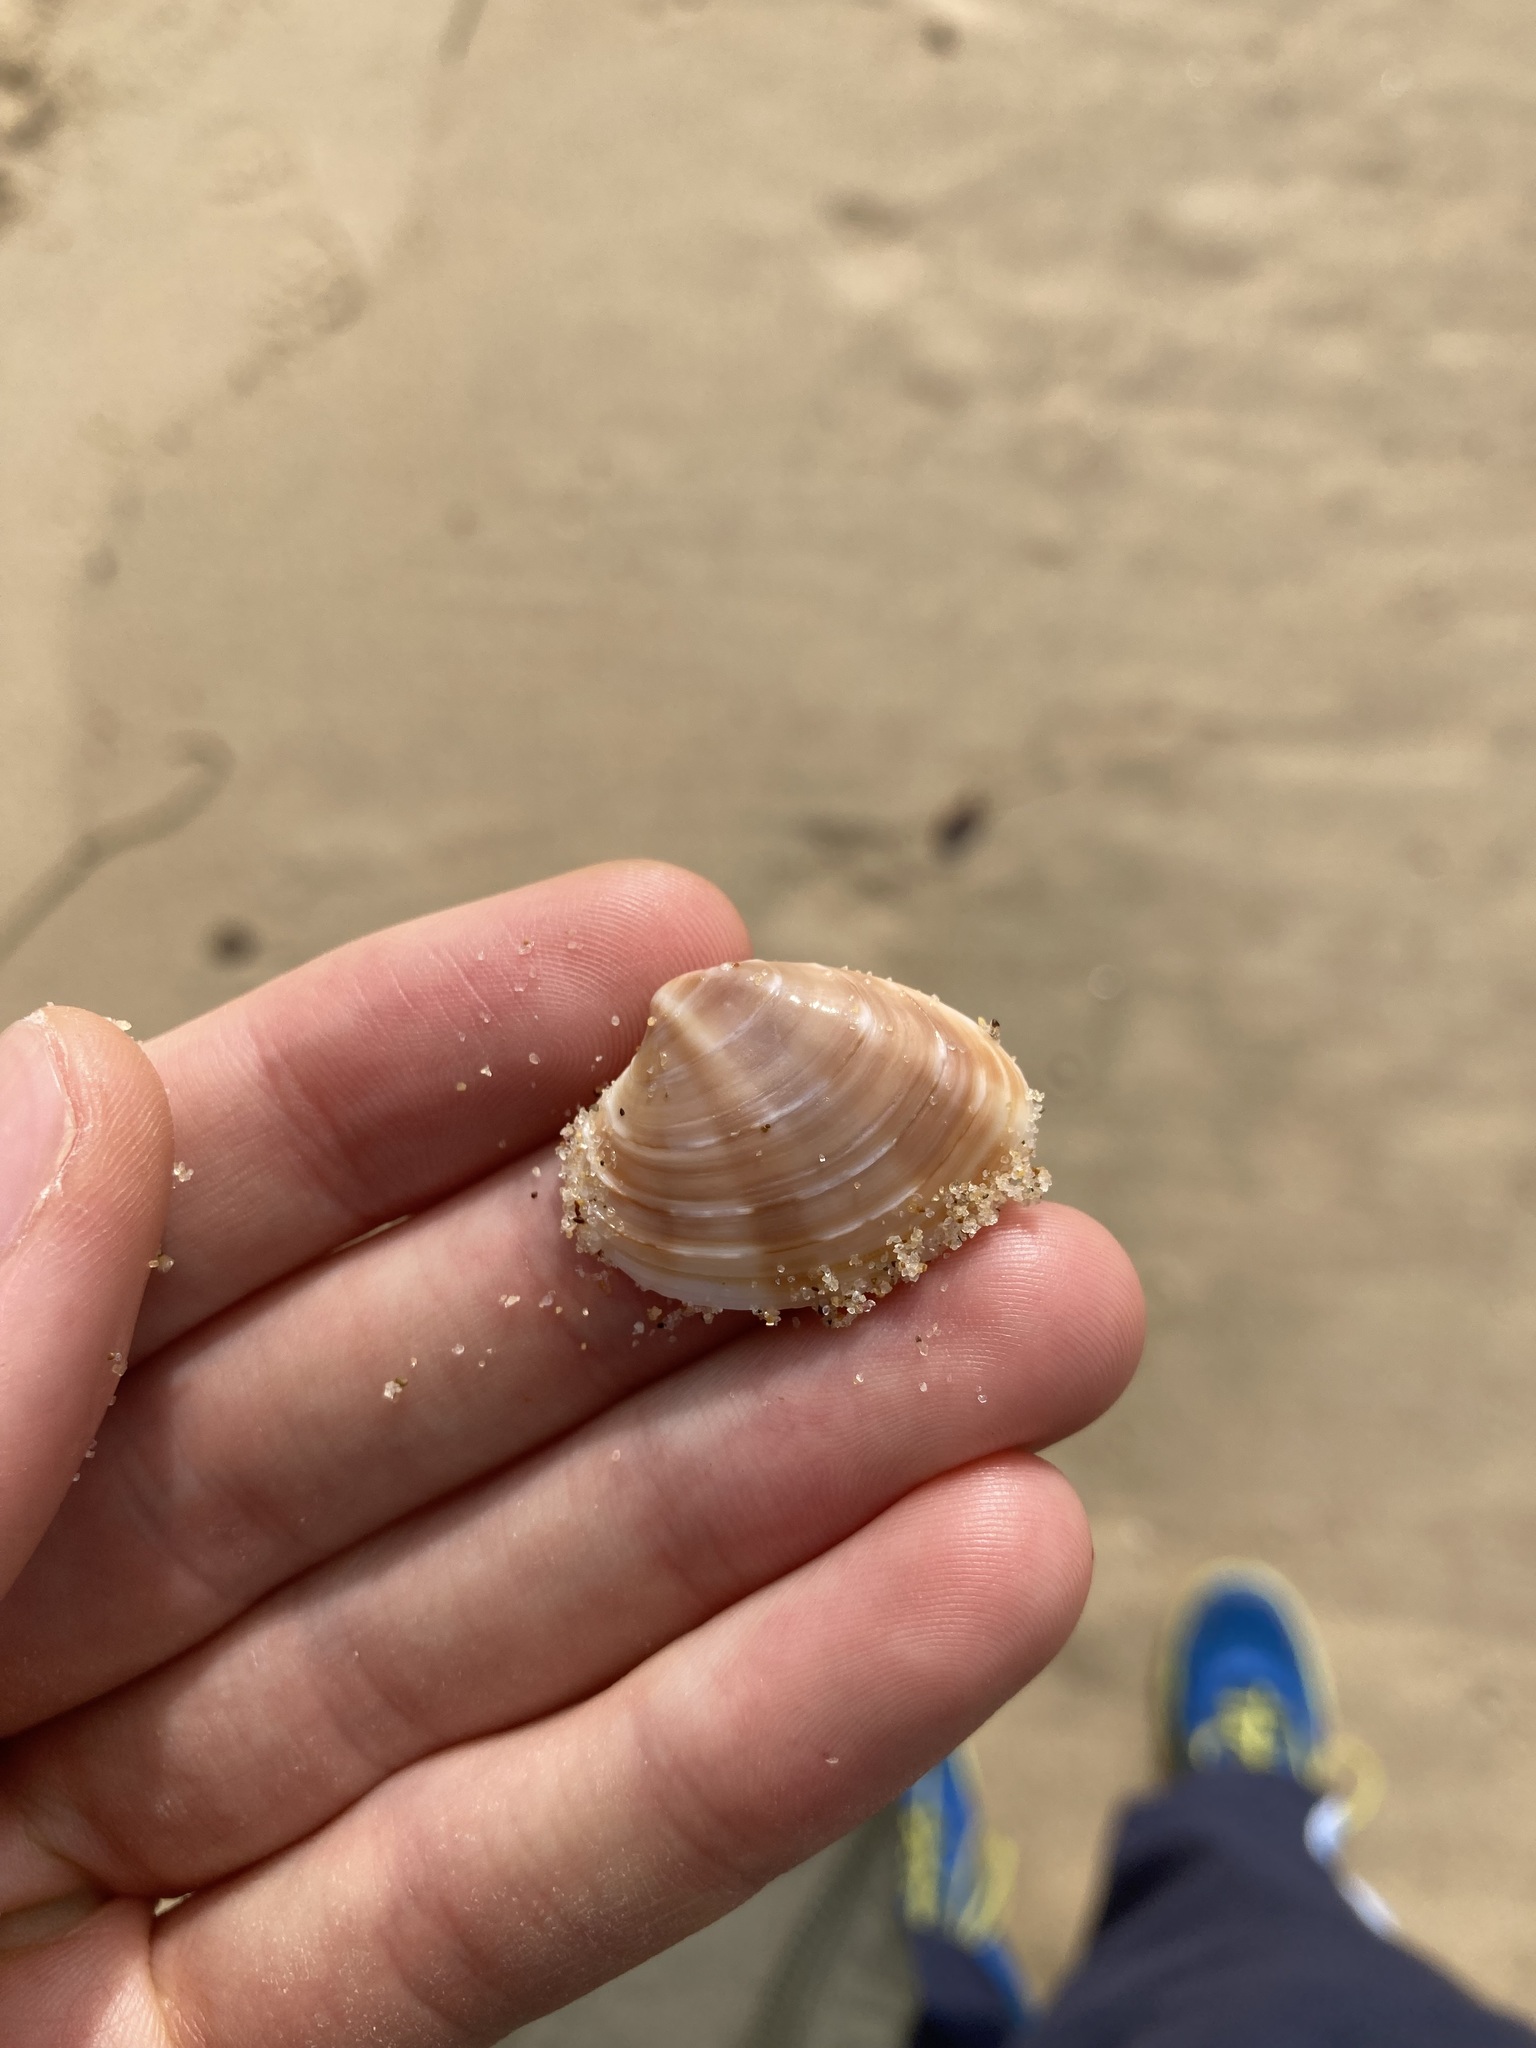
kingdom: Animalia
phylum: Mollusca
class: Bivalvia
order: Venerida
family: Veneridae
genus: Bassina
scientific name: Bassina jacksonii
